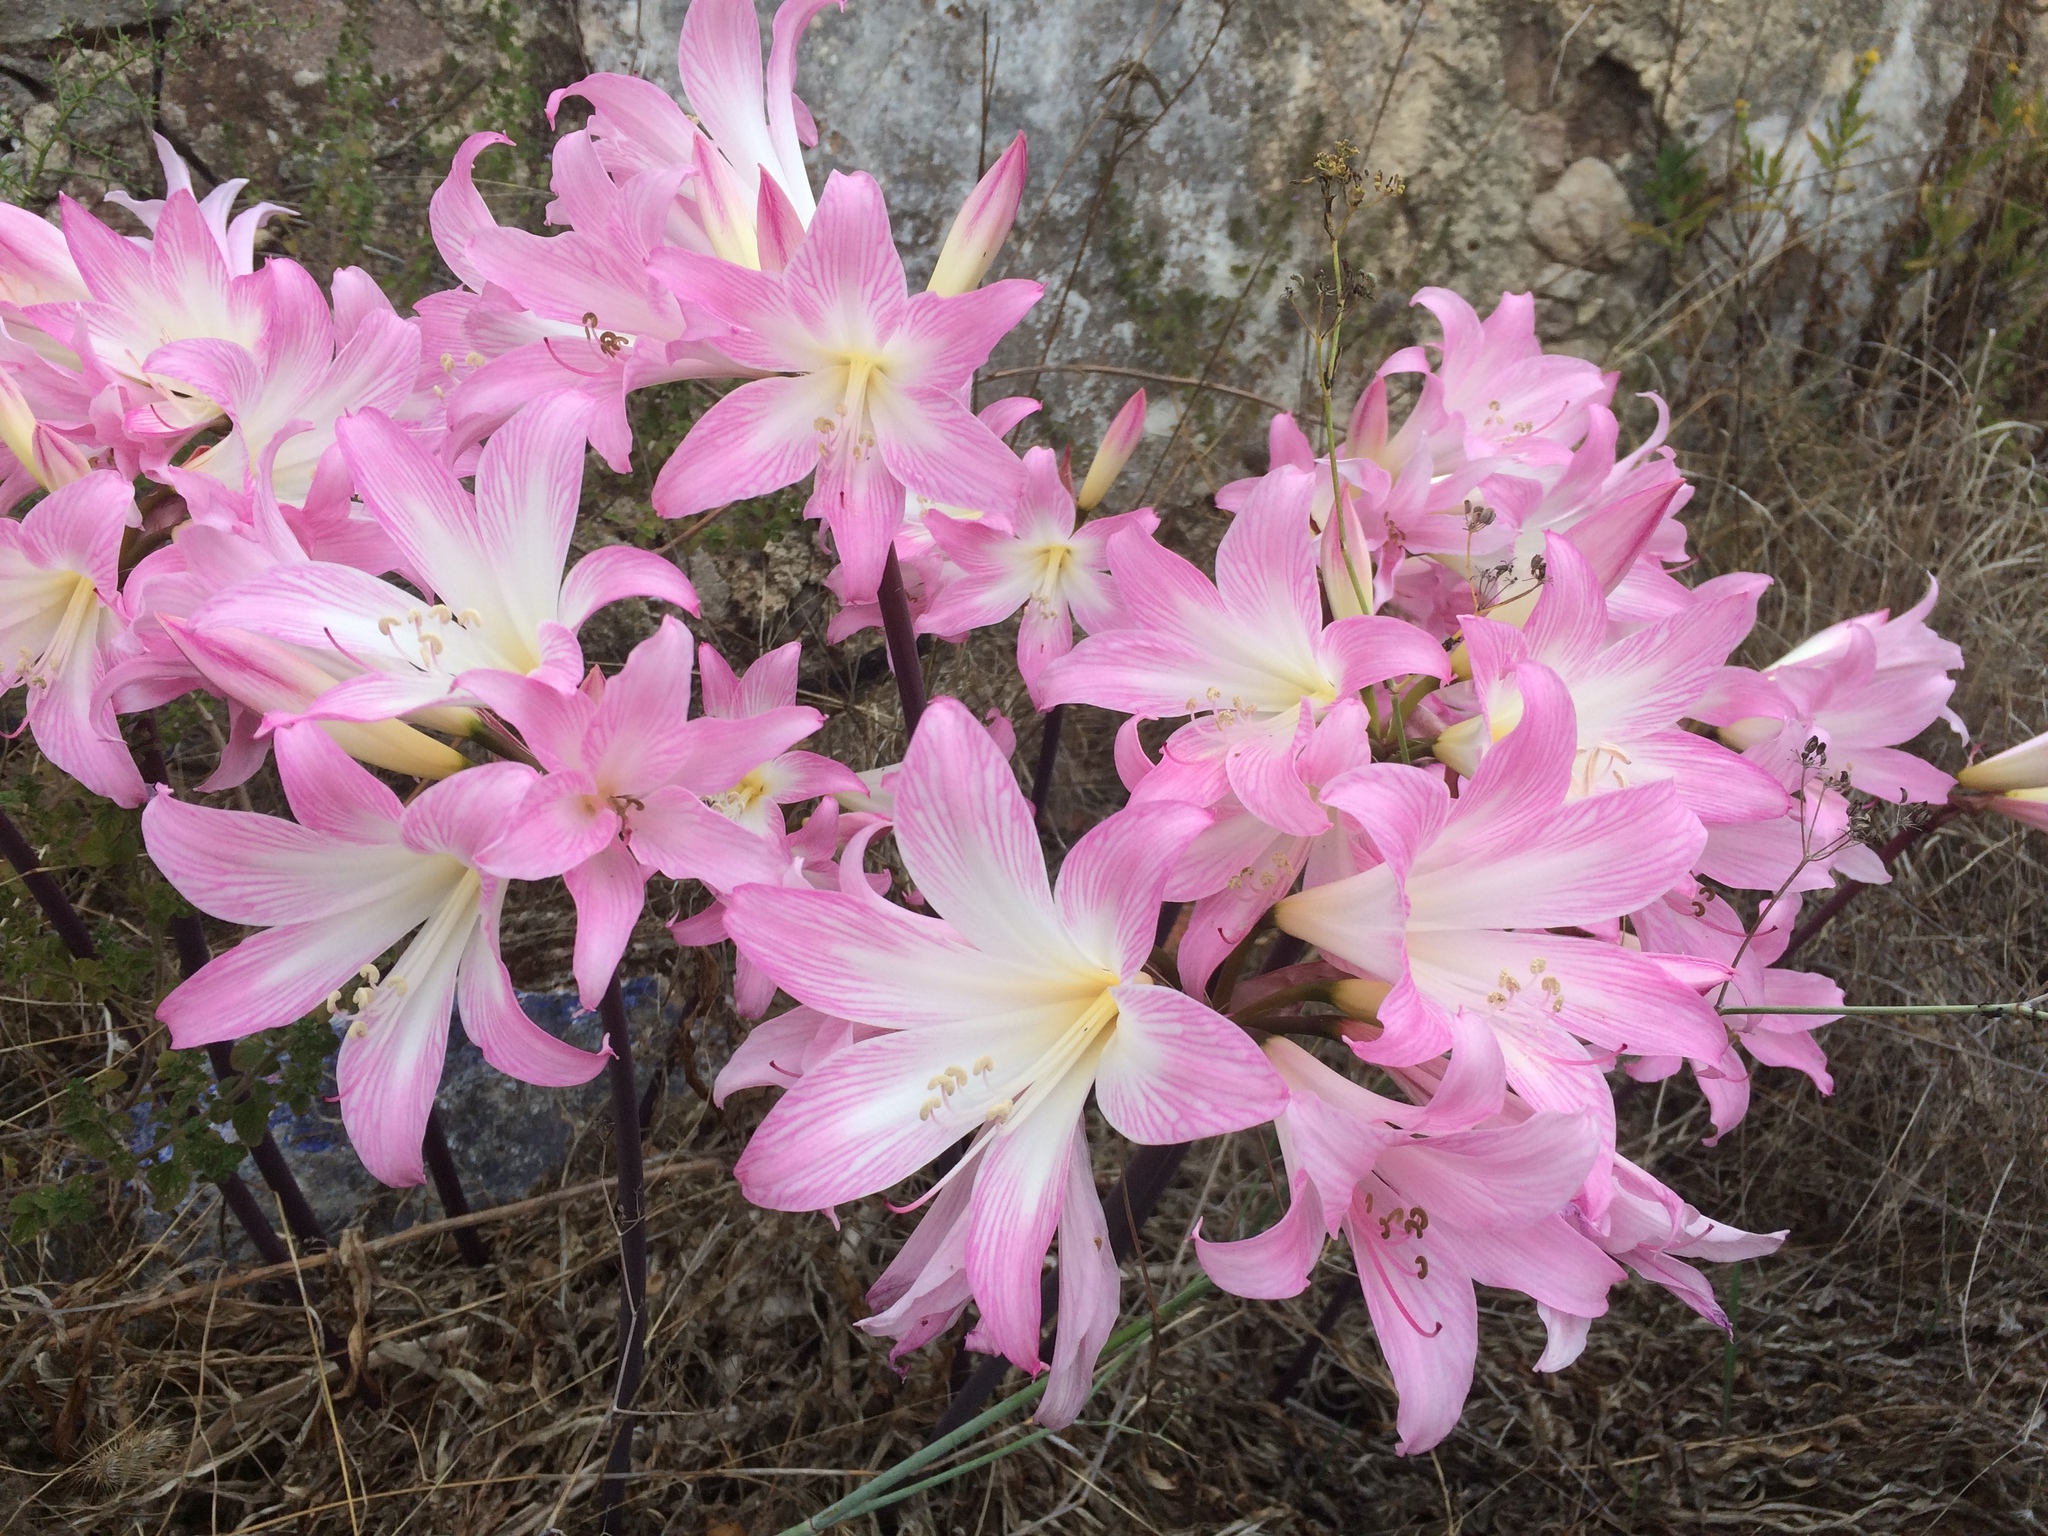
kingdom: Plantae
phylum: Tracheophyta
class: Liliopsida
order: Asparagales
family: Amaryllidaceae
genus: Amaryllis
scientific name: Amaryllis belladonna
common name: Jersey lily
